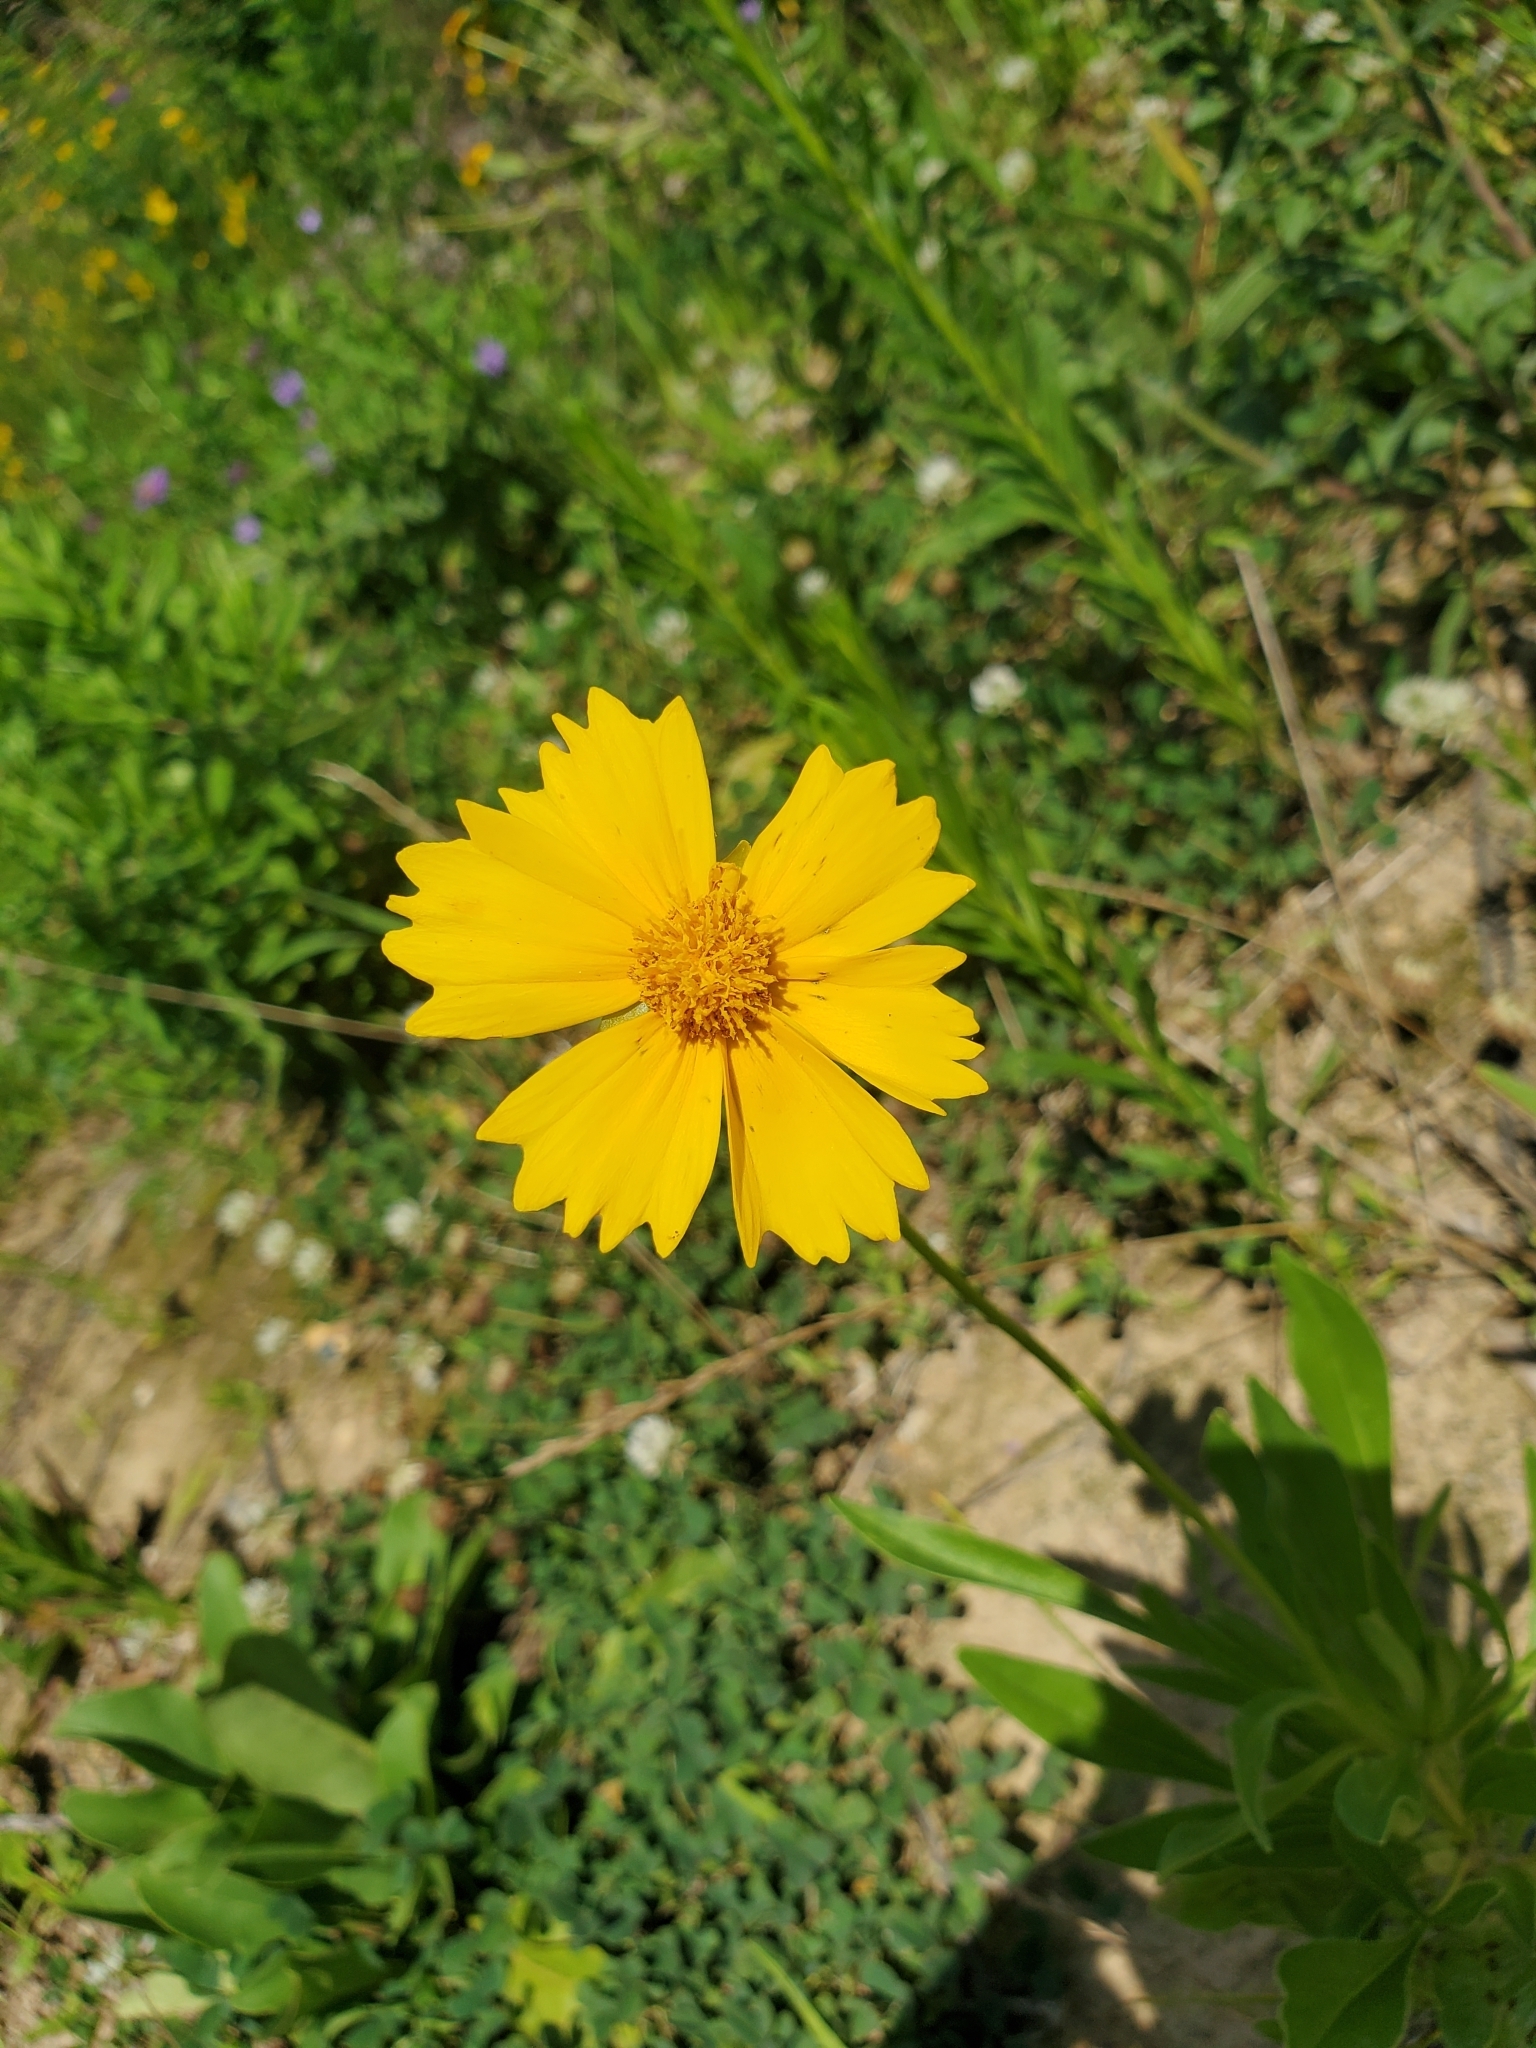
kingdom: Plantae
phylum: Tracheophyta
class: Magnoliopsida
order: Asterales
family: Asteraceae
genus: Coreopsis
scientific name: Coreopsis lanceolata
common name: Garden coreopsis
